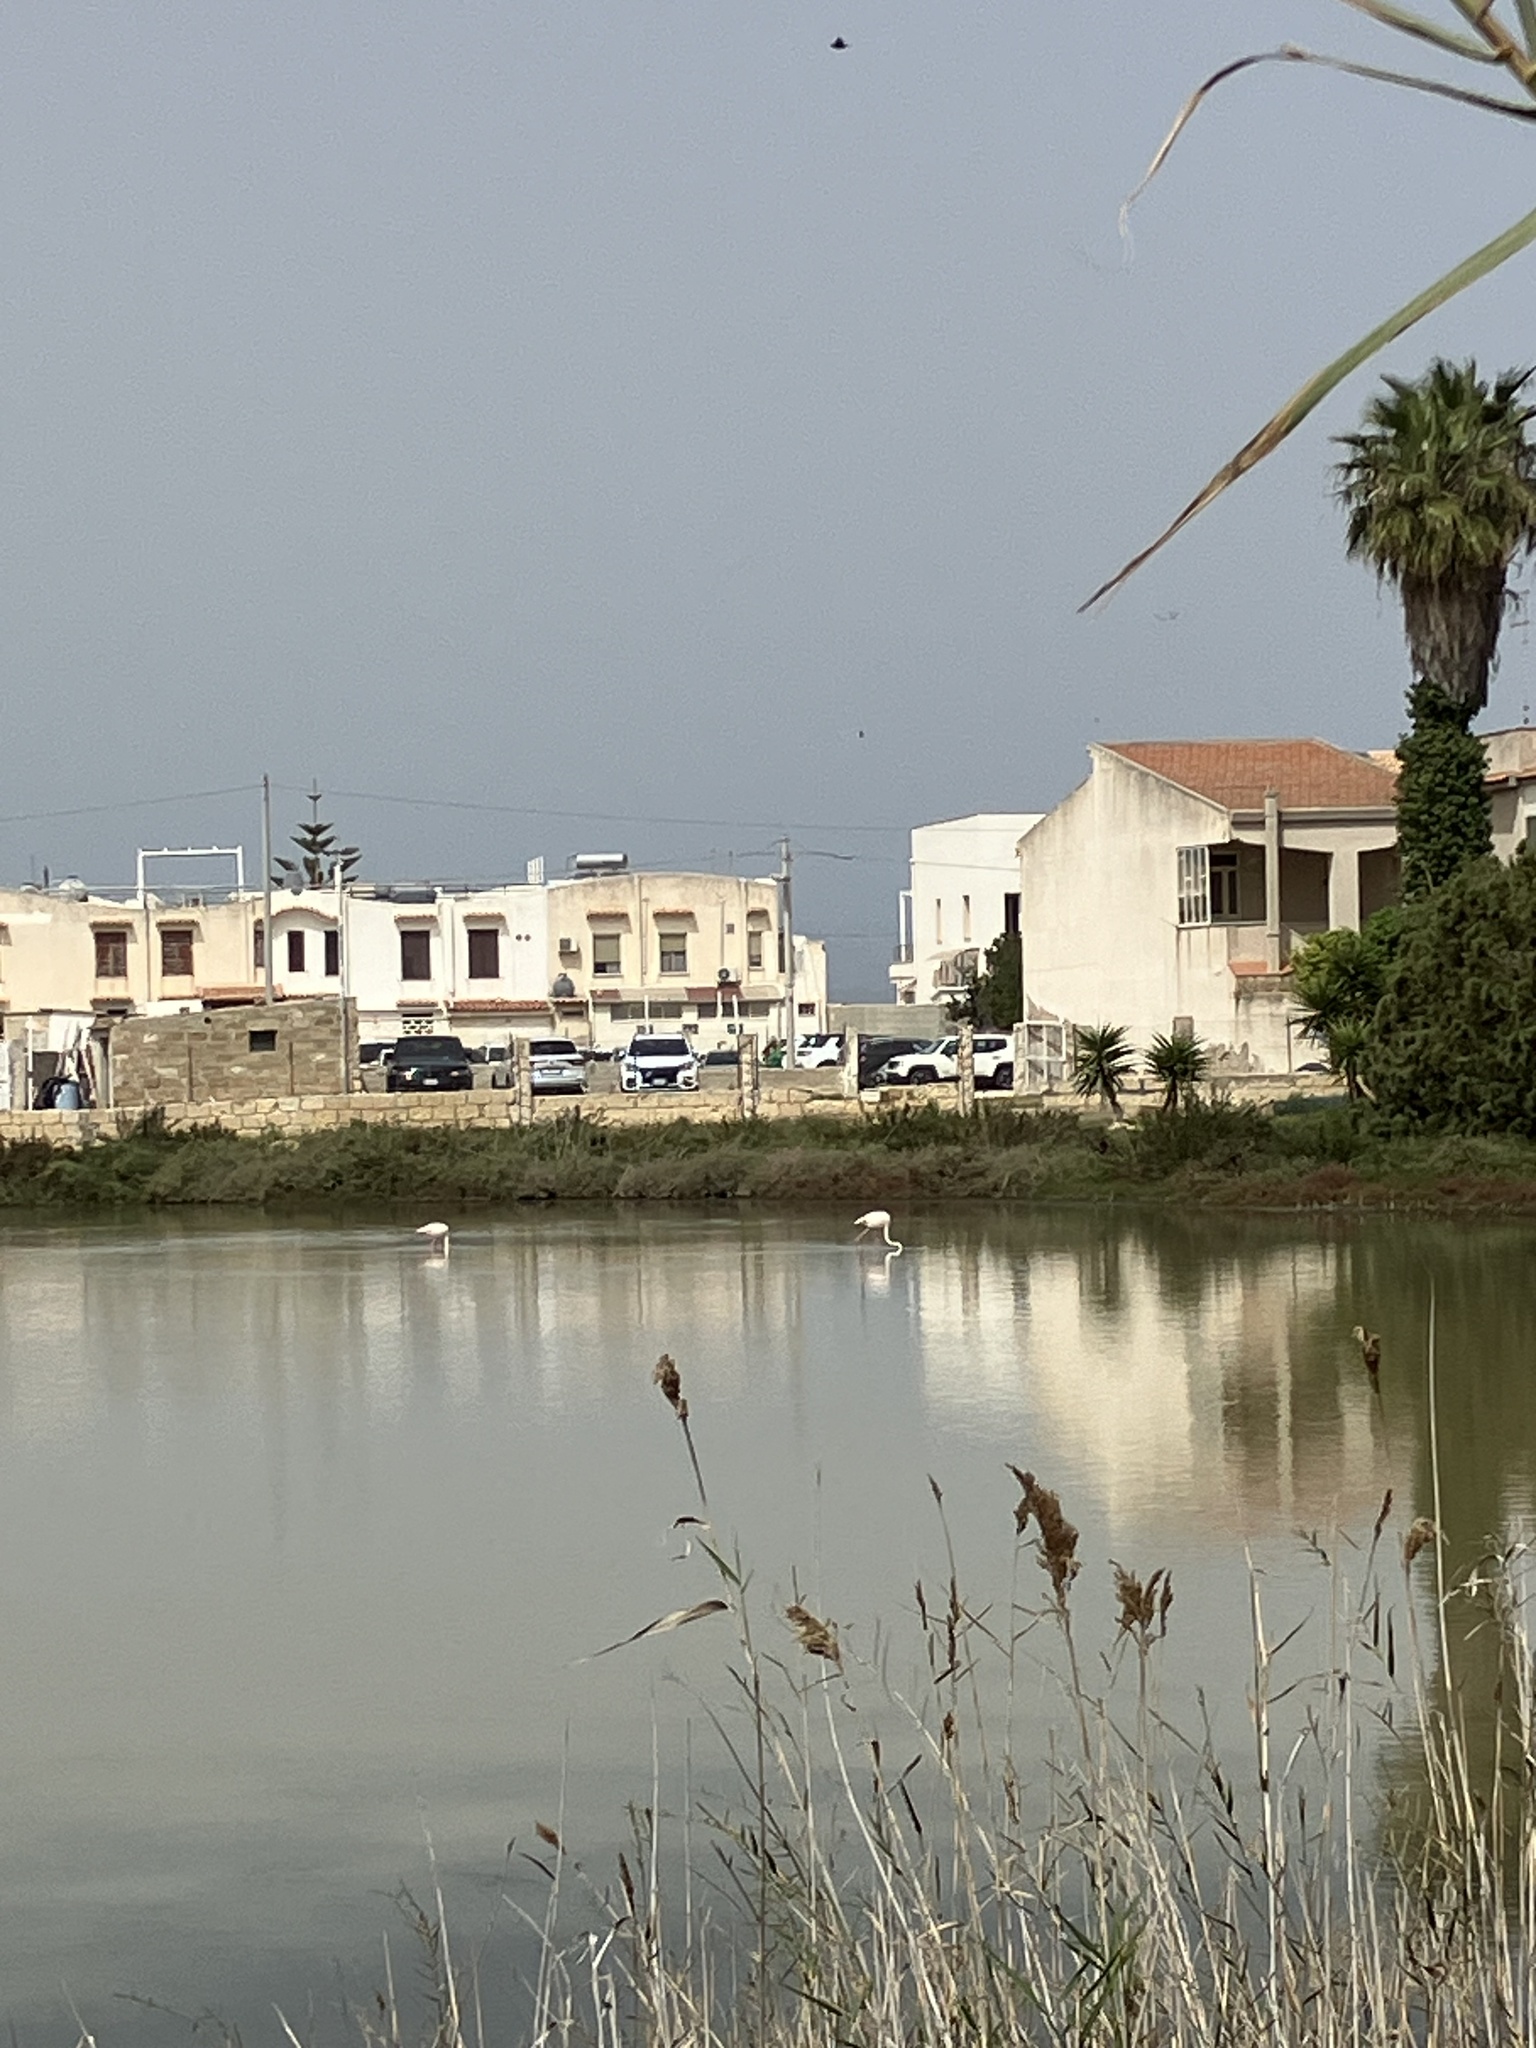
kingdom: Animalia
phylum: Chordata
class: Aves
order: Phoenicopteriformes
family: Phoenicopteridae
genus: Phoenicopterus
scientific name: Phoenicopterus roseus
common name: Greater flamingo
